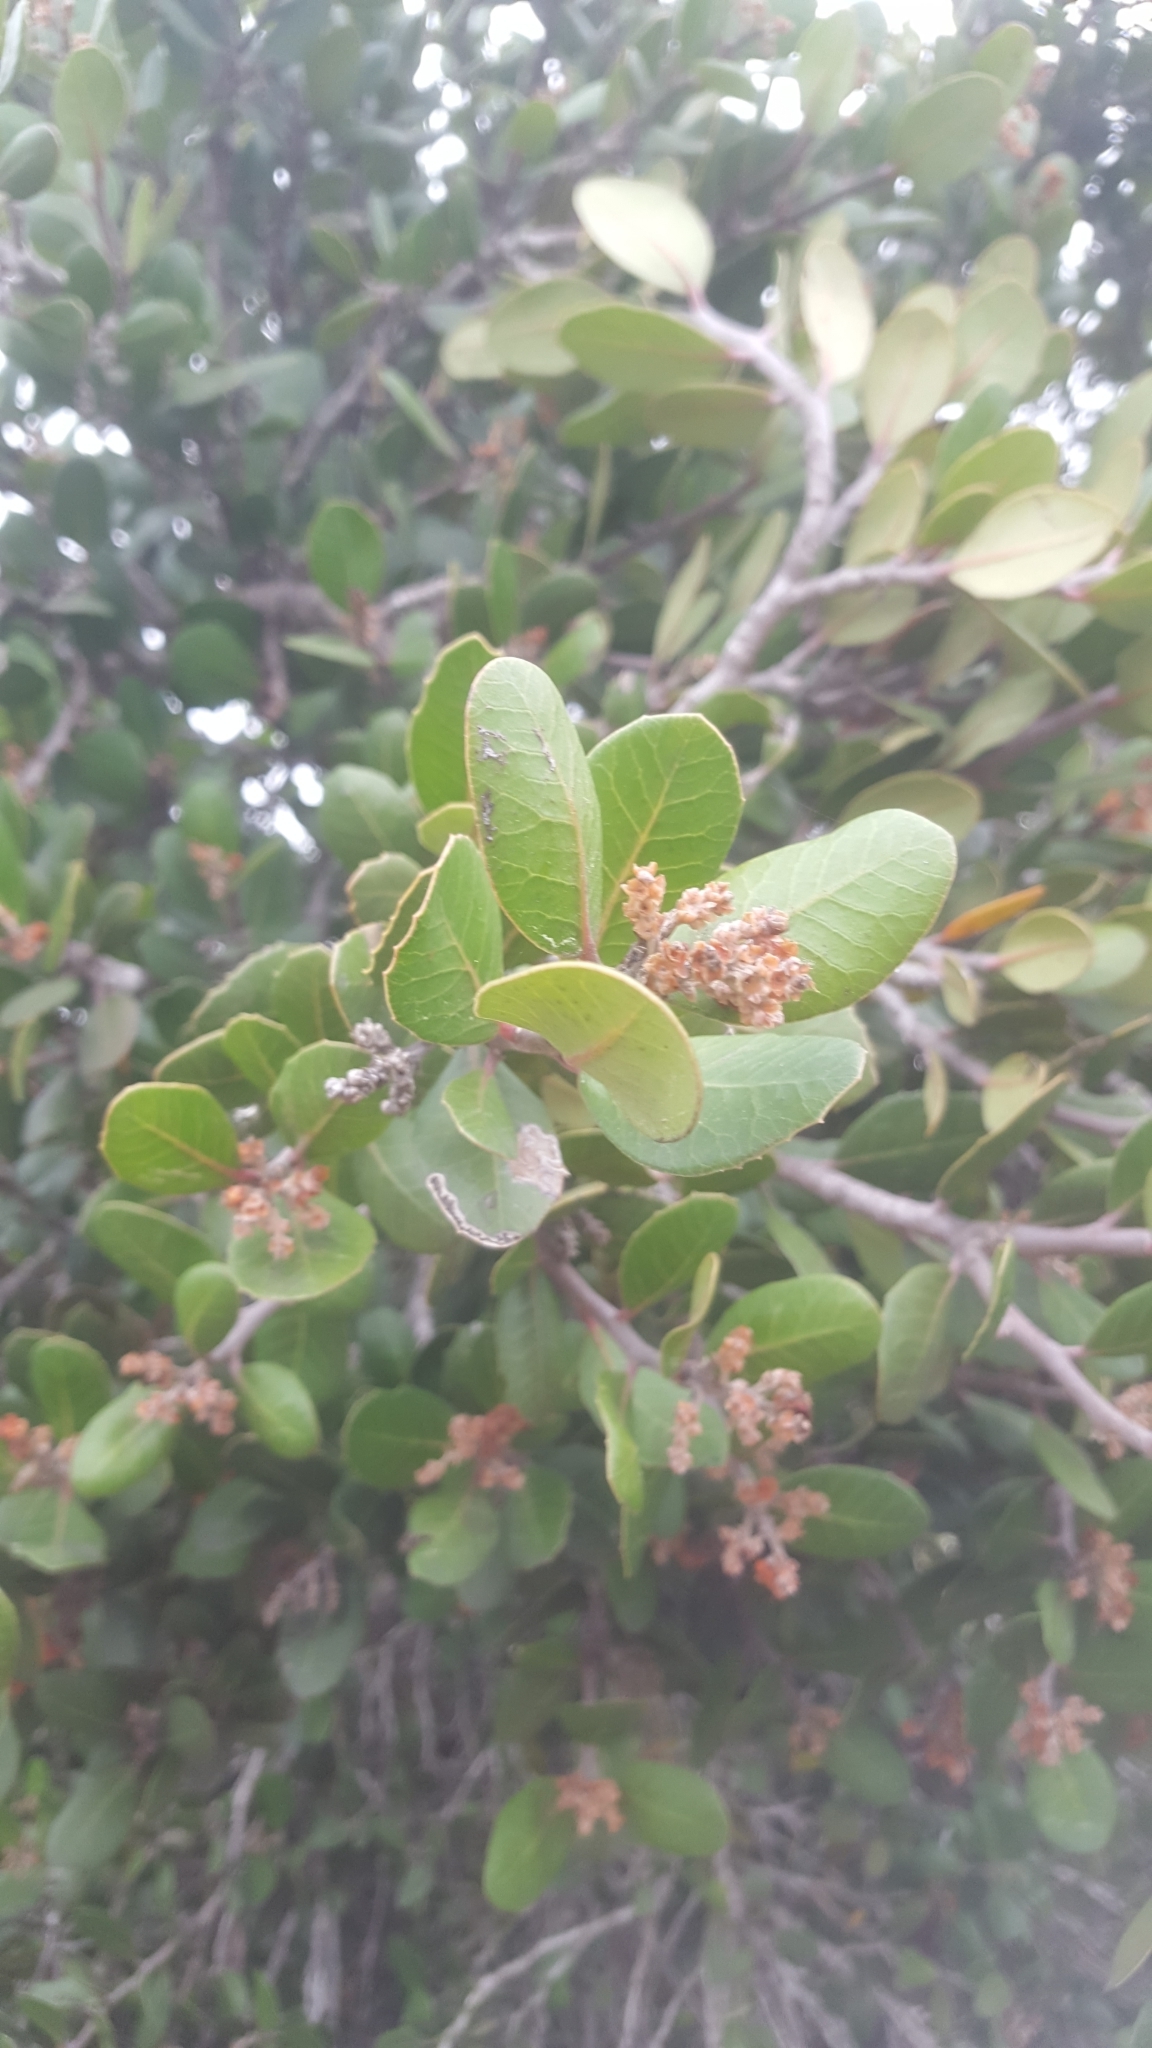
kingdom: Plantae
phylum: Tracheophyta
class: Magnoliopsida
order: Sapindales
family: Anacardiaceae
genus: Rhus
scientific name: Rhus integrifolia
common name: Lemonade sumac
